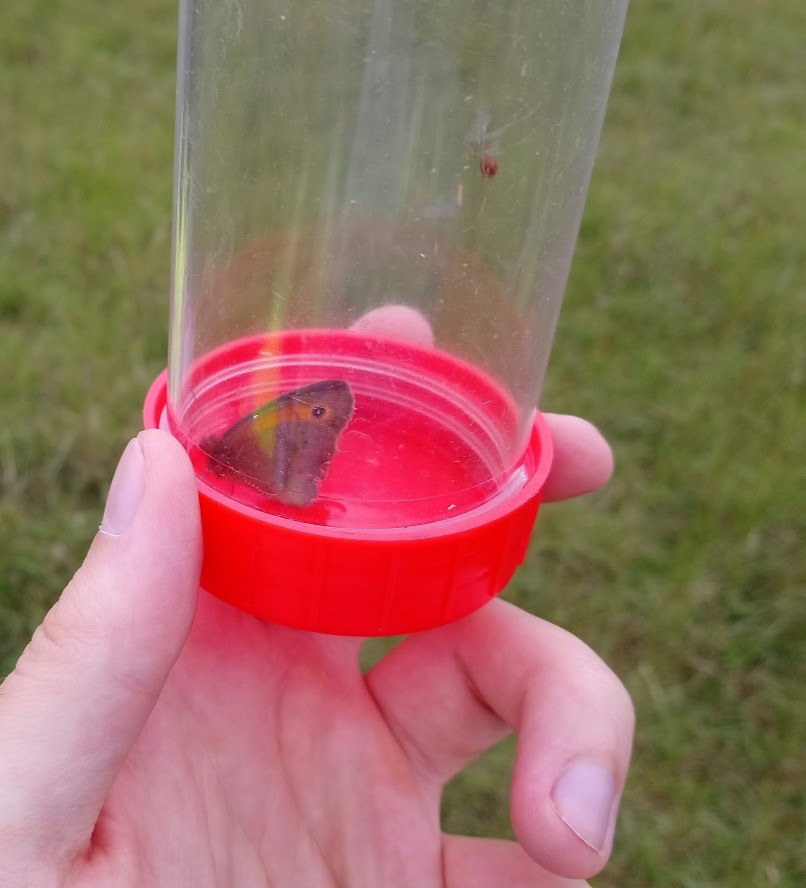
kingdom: Animalia
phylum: Arthropoda
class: Insecta
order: Lepidoptera
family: Nymphalidae
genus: Maniola
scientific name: Maniola jurtina
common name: Meadow brown
